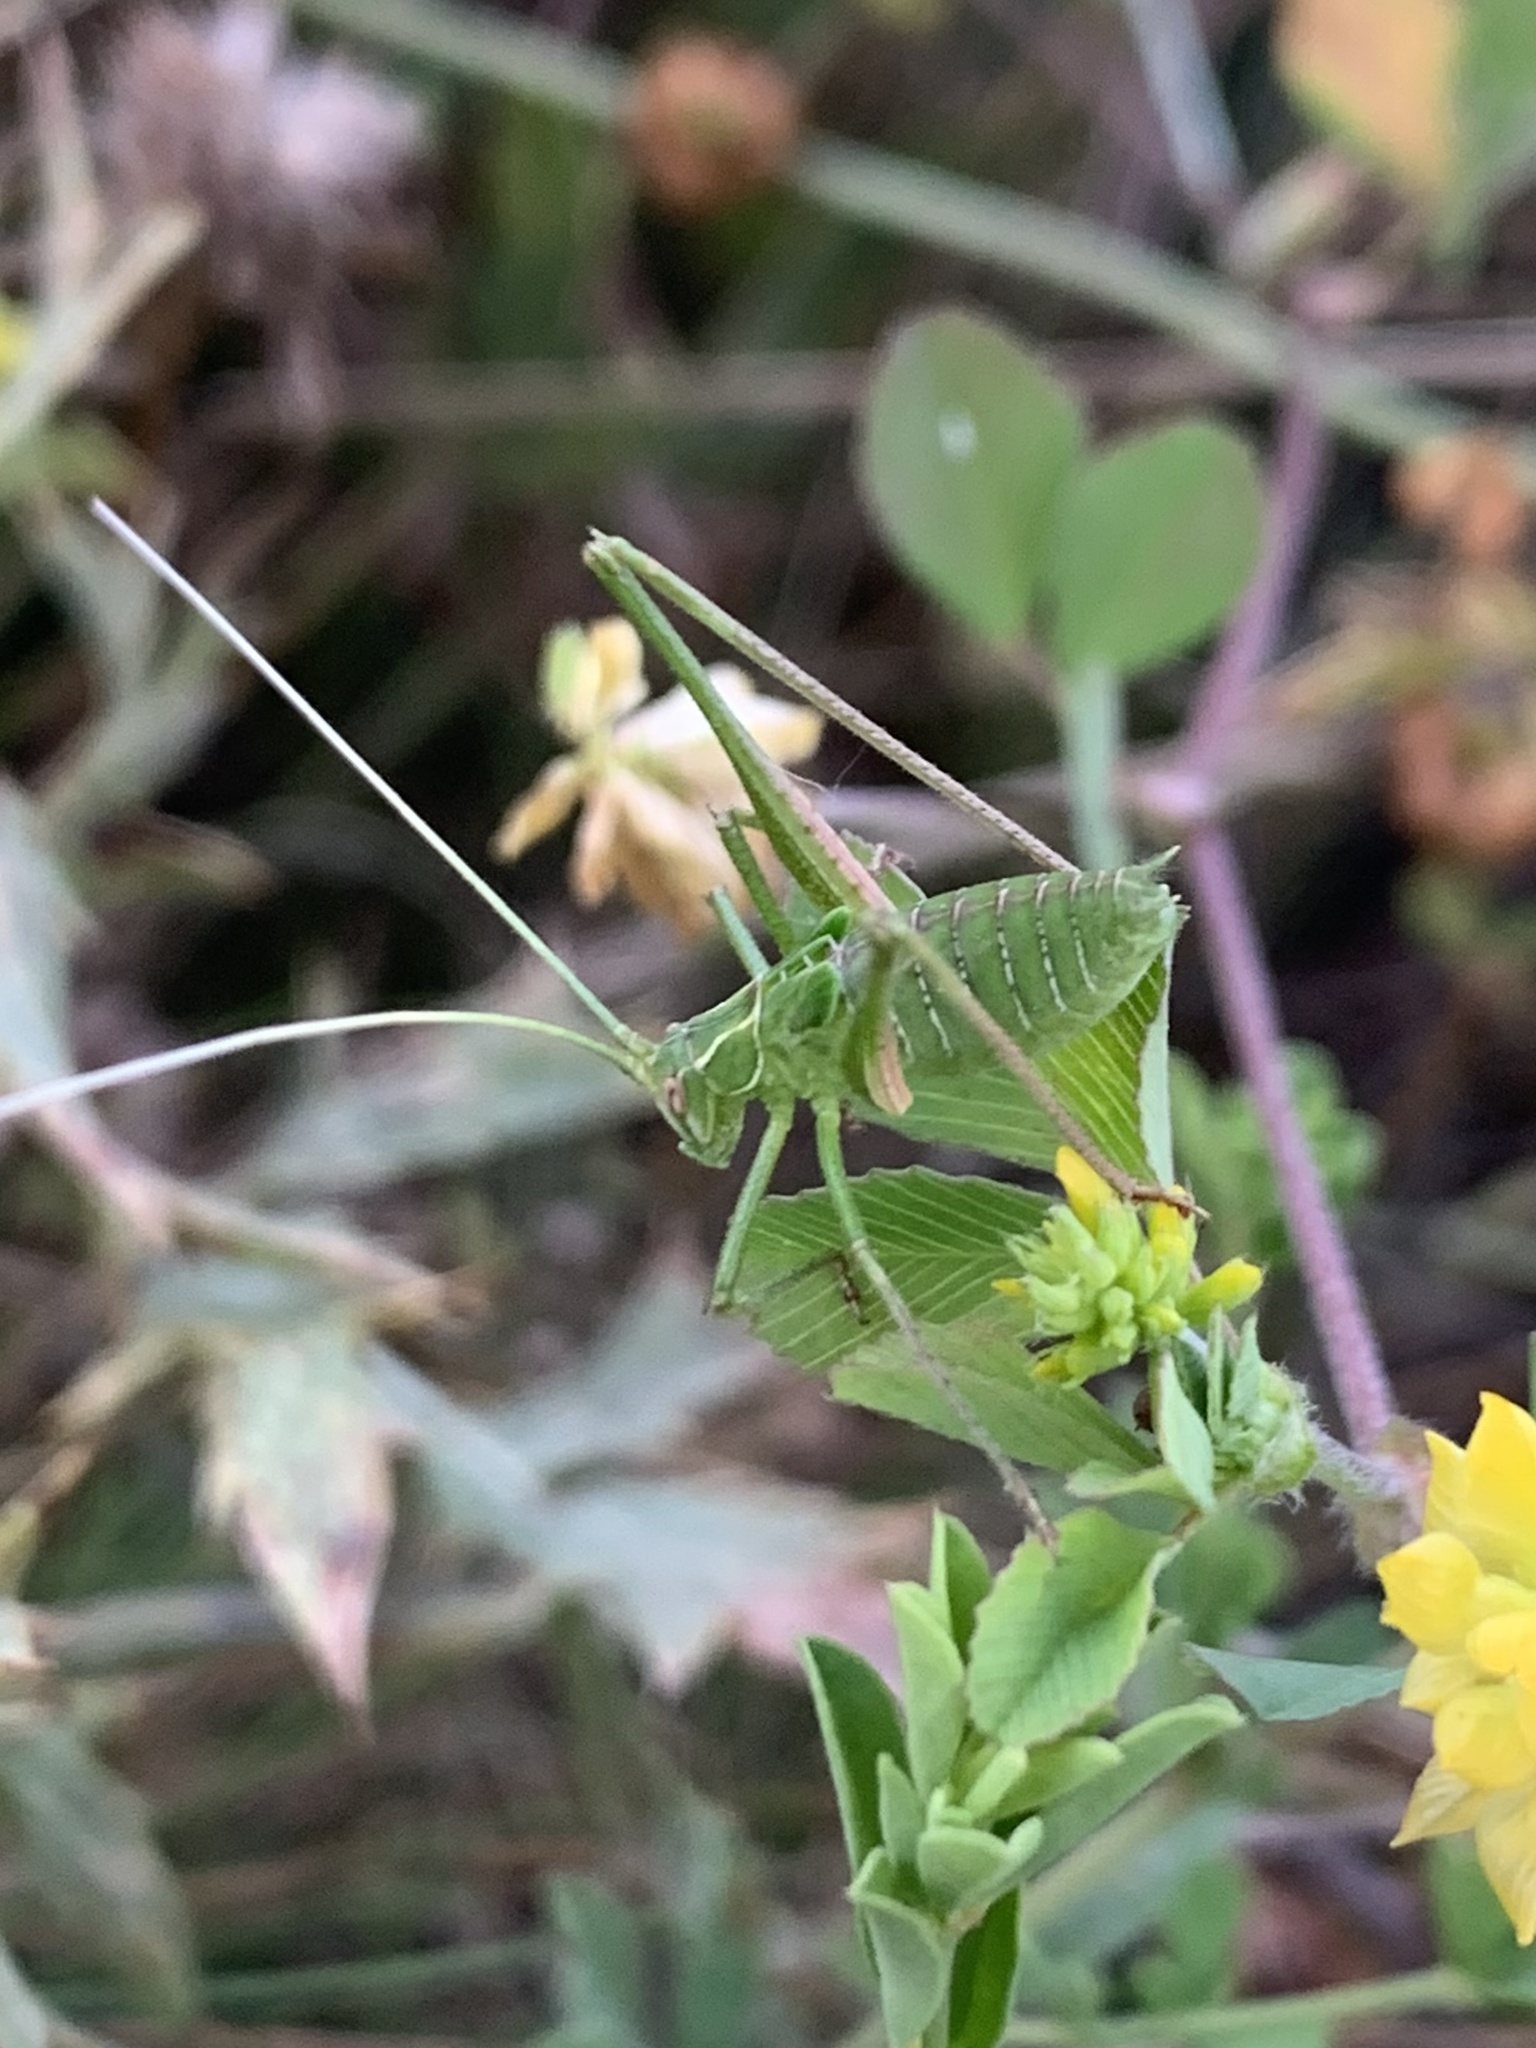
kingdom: Animalia
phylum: Arthropoda
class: Insecta
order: Orthoptera
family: Tettigoniidae
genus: Tylopsis
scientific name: Tylopsis lilifolia
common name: Lily bush-cricket
